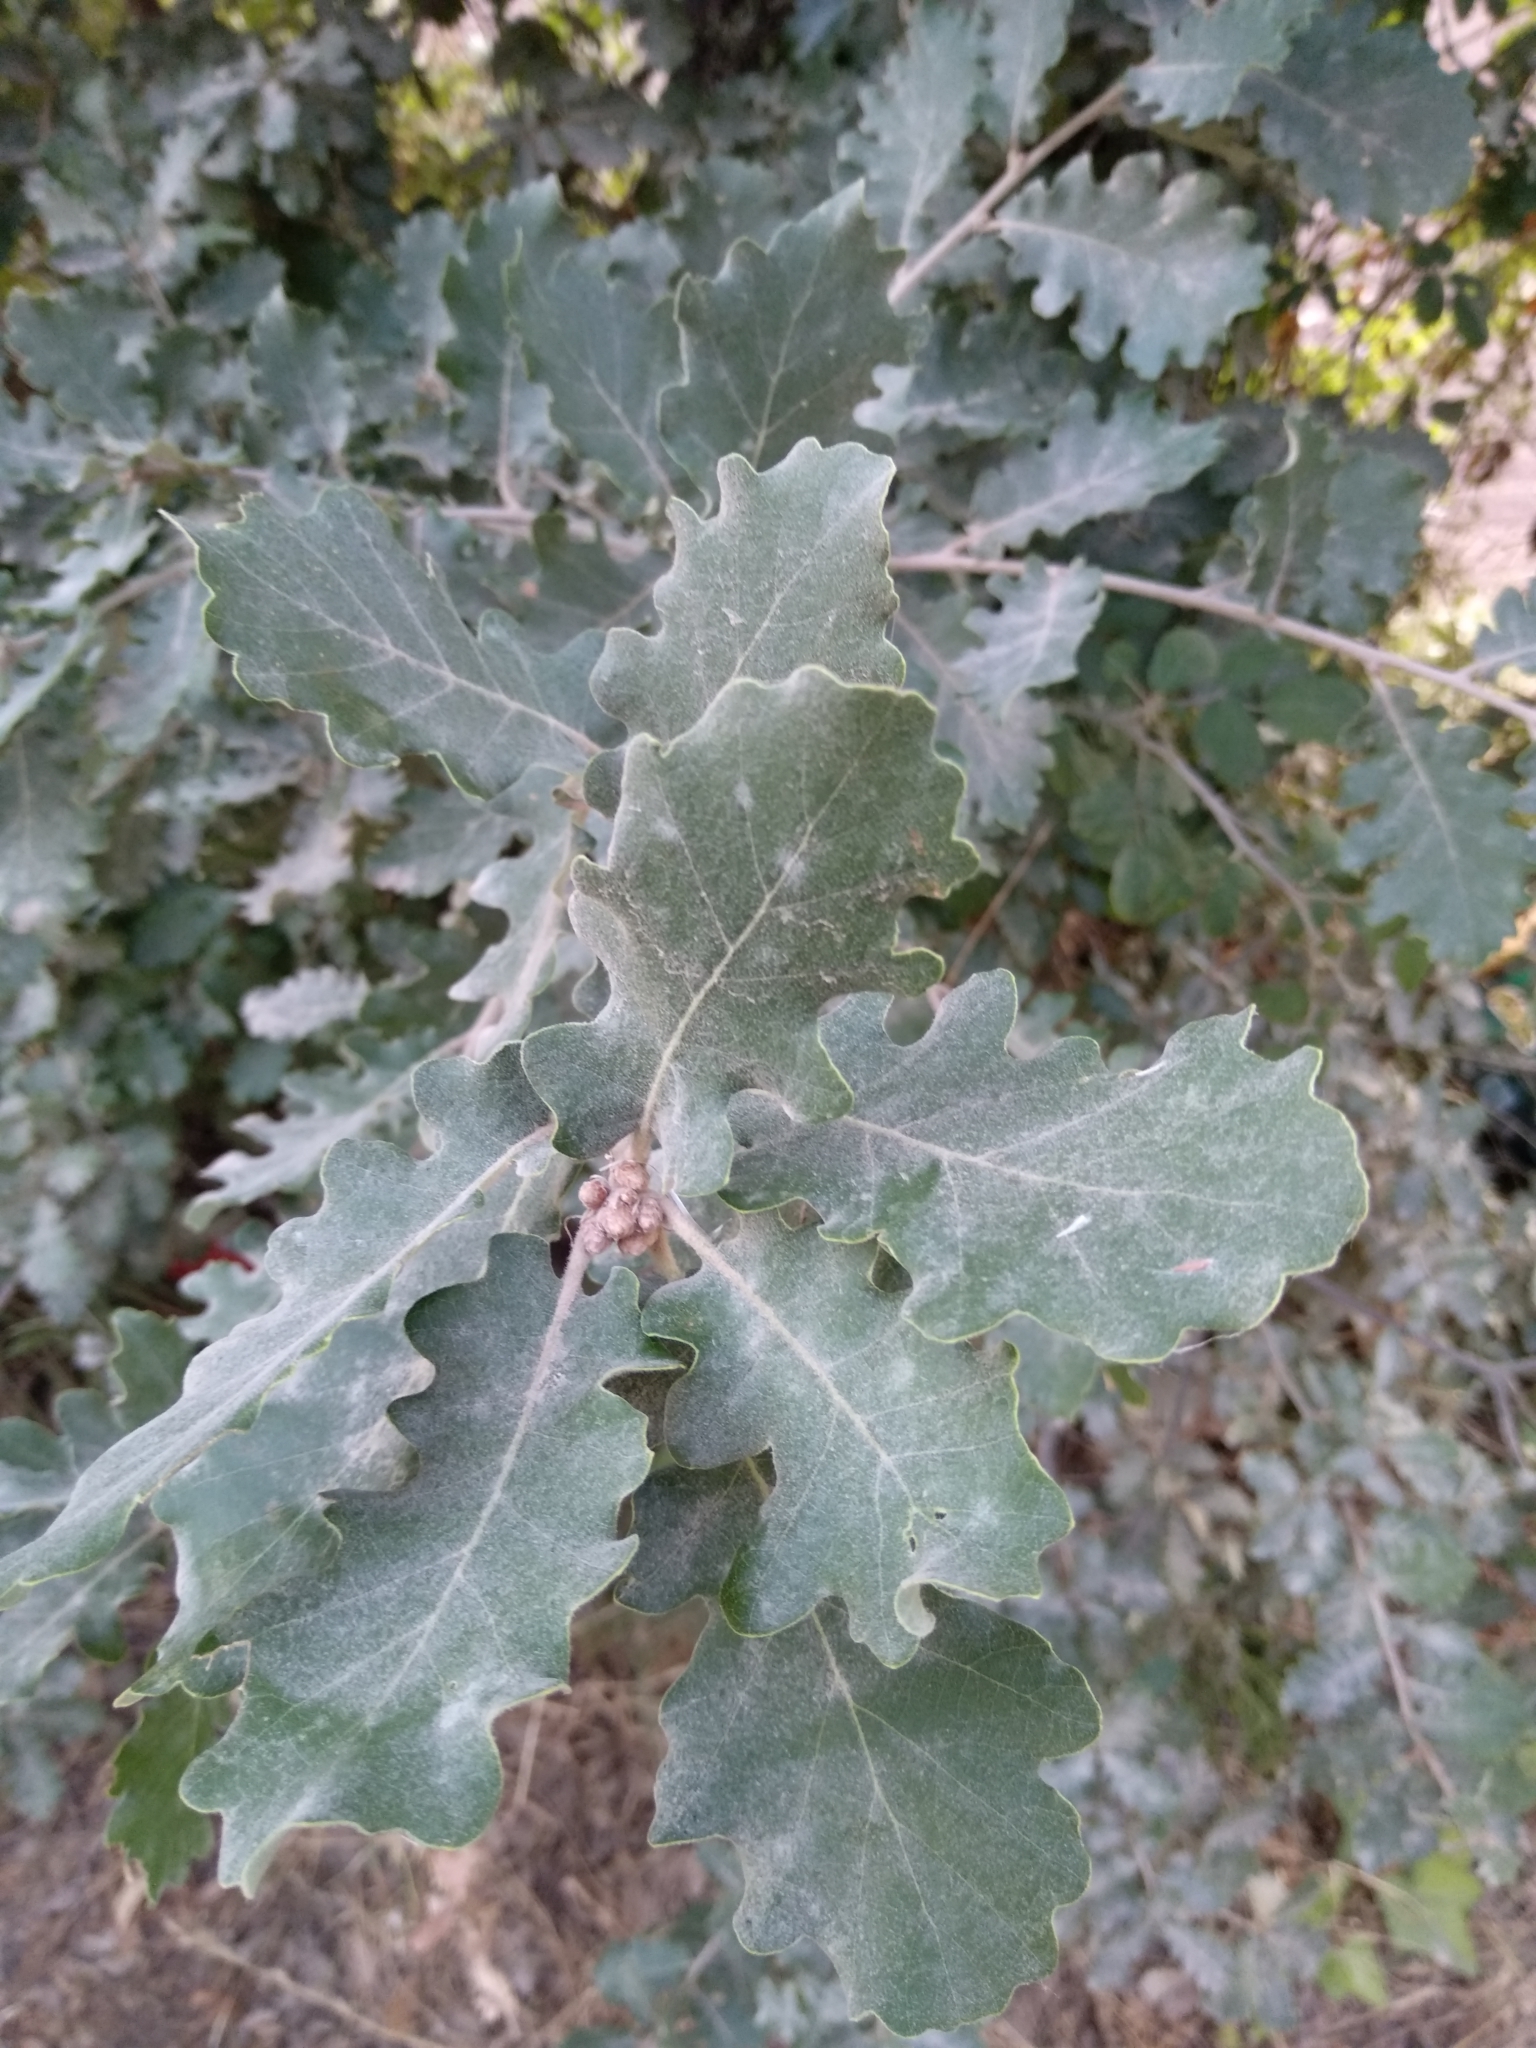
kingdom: Plantae
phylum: Tracheophyta
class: Magnoliopsida
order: Fagales
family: Fagaceae
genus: Quercus
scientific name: Quercus pubescens
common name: Downy oak
